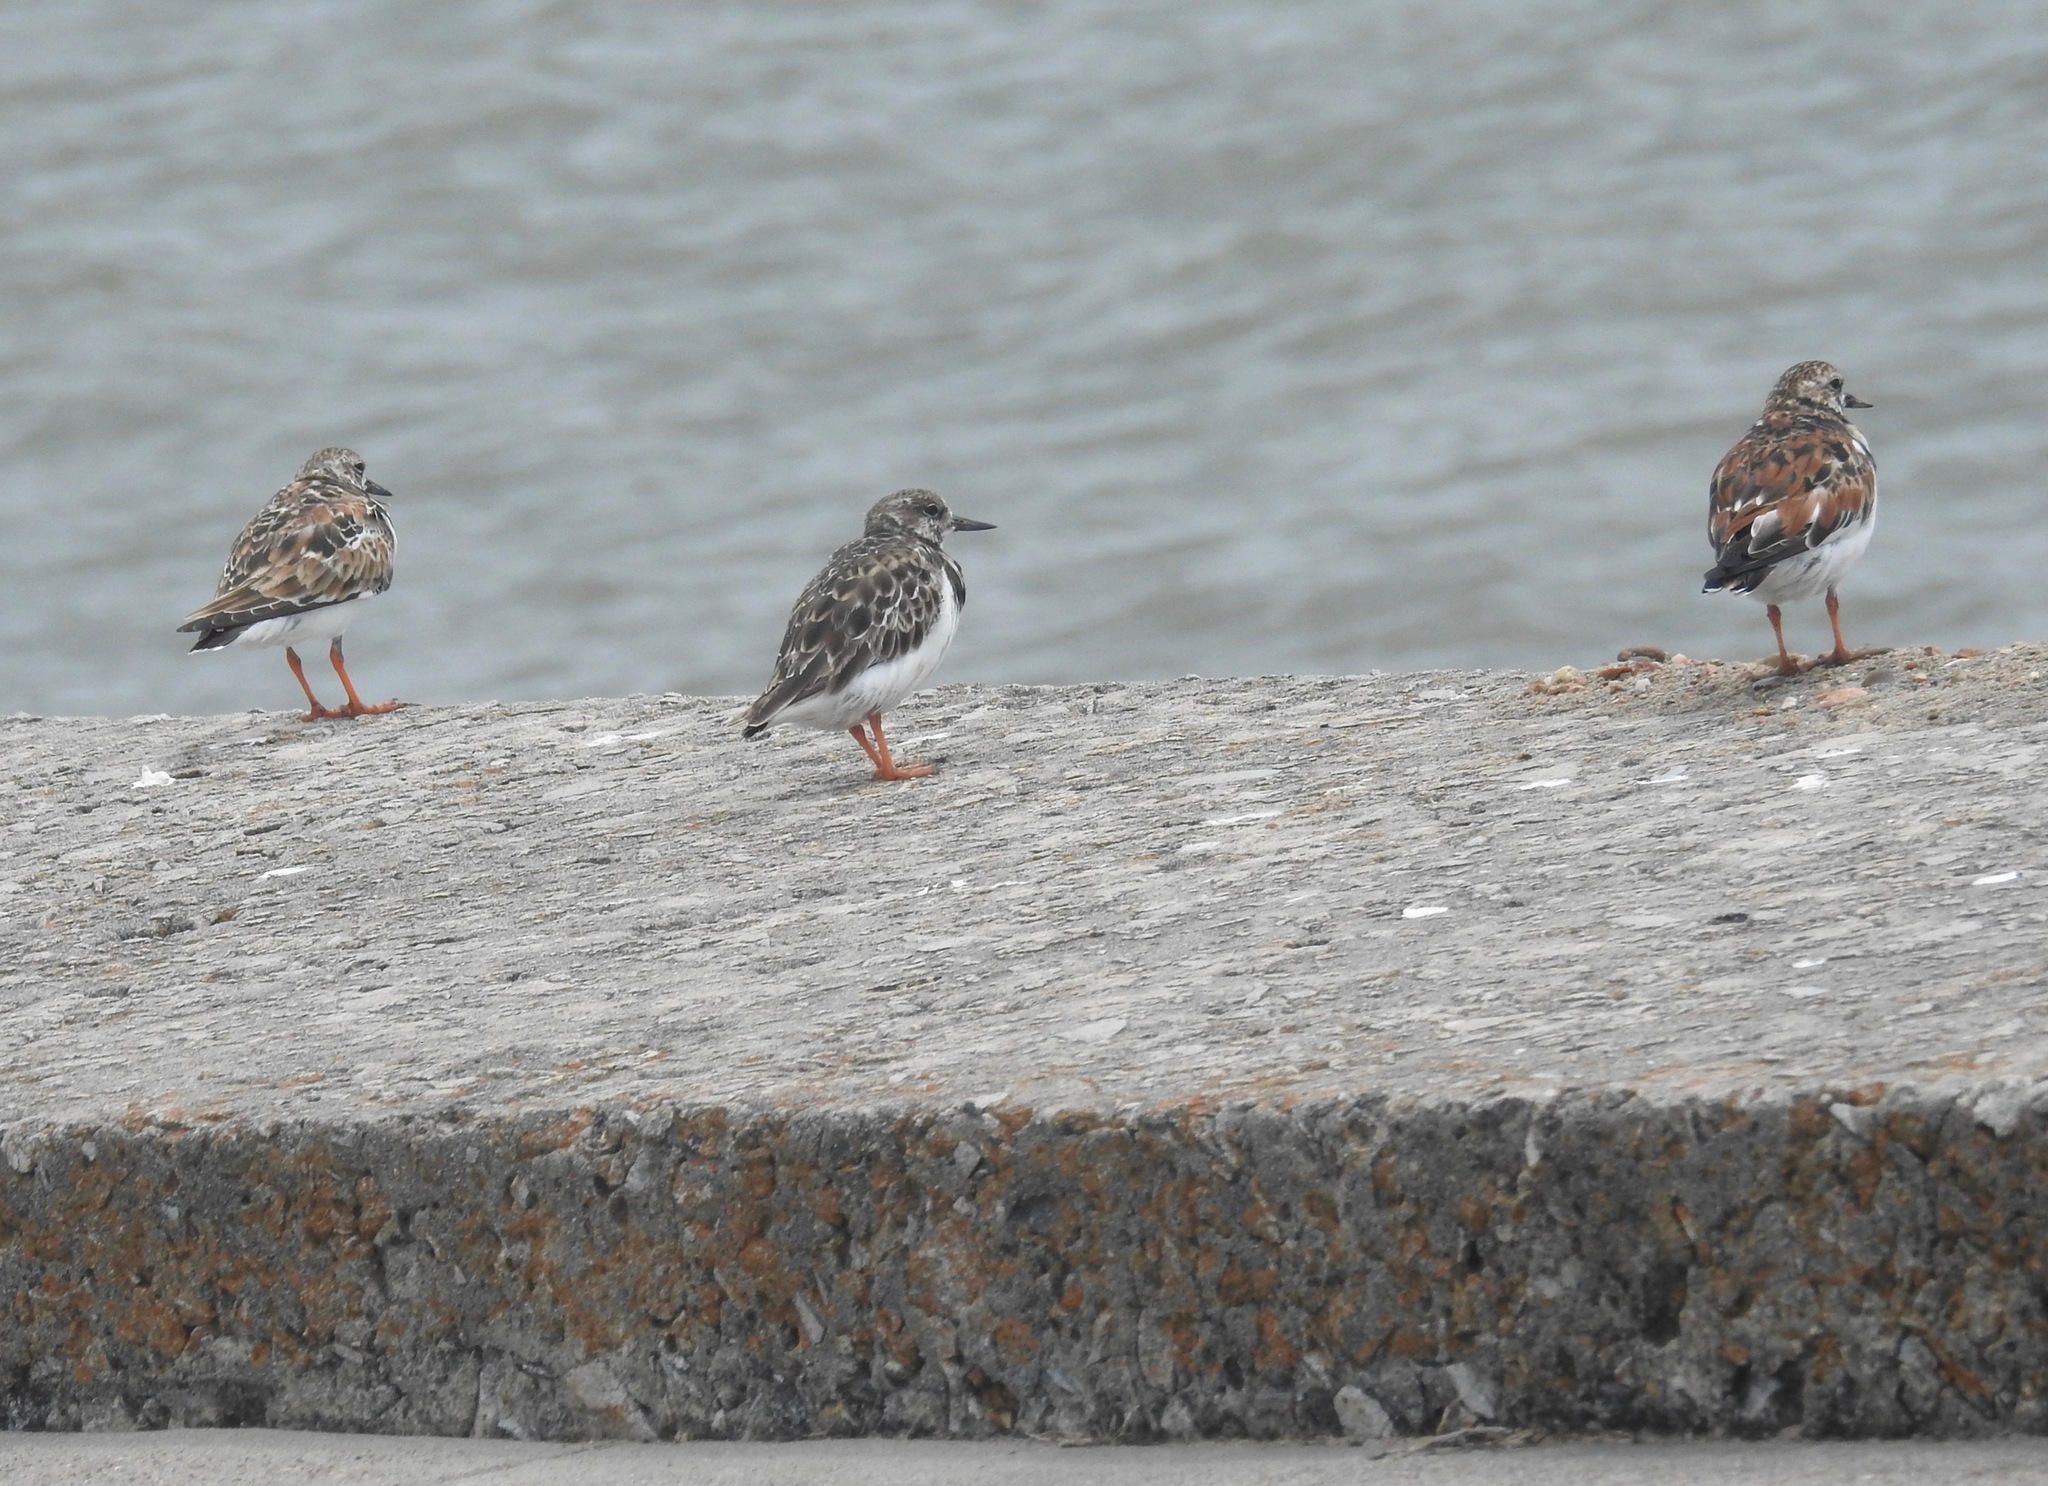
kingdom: Animalia
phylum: Chordata
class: Aves
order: Charadriiformes
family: Scolopacidae
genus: Arenaria
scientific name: Arenaria interpres
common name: Ruddy turnstone
